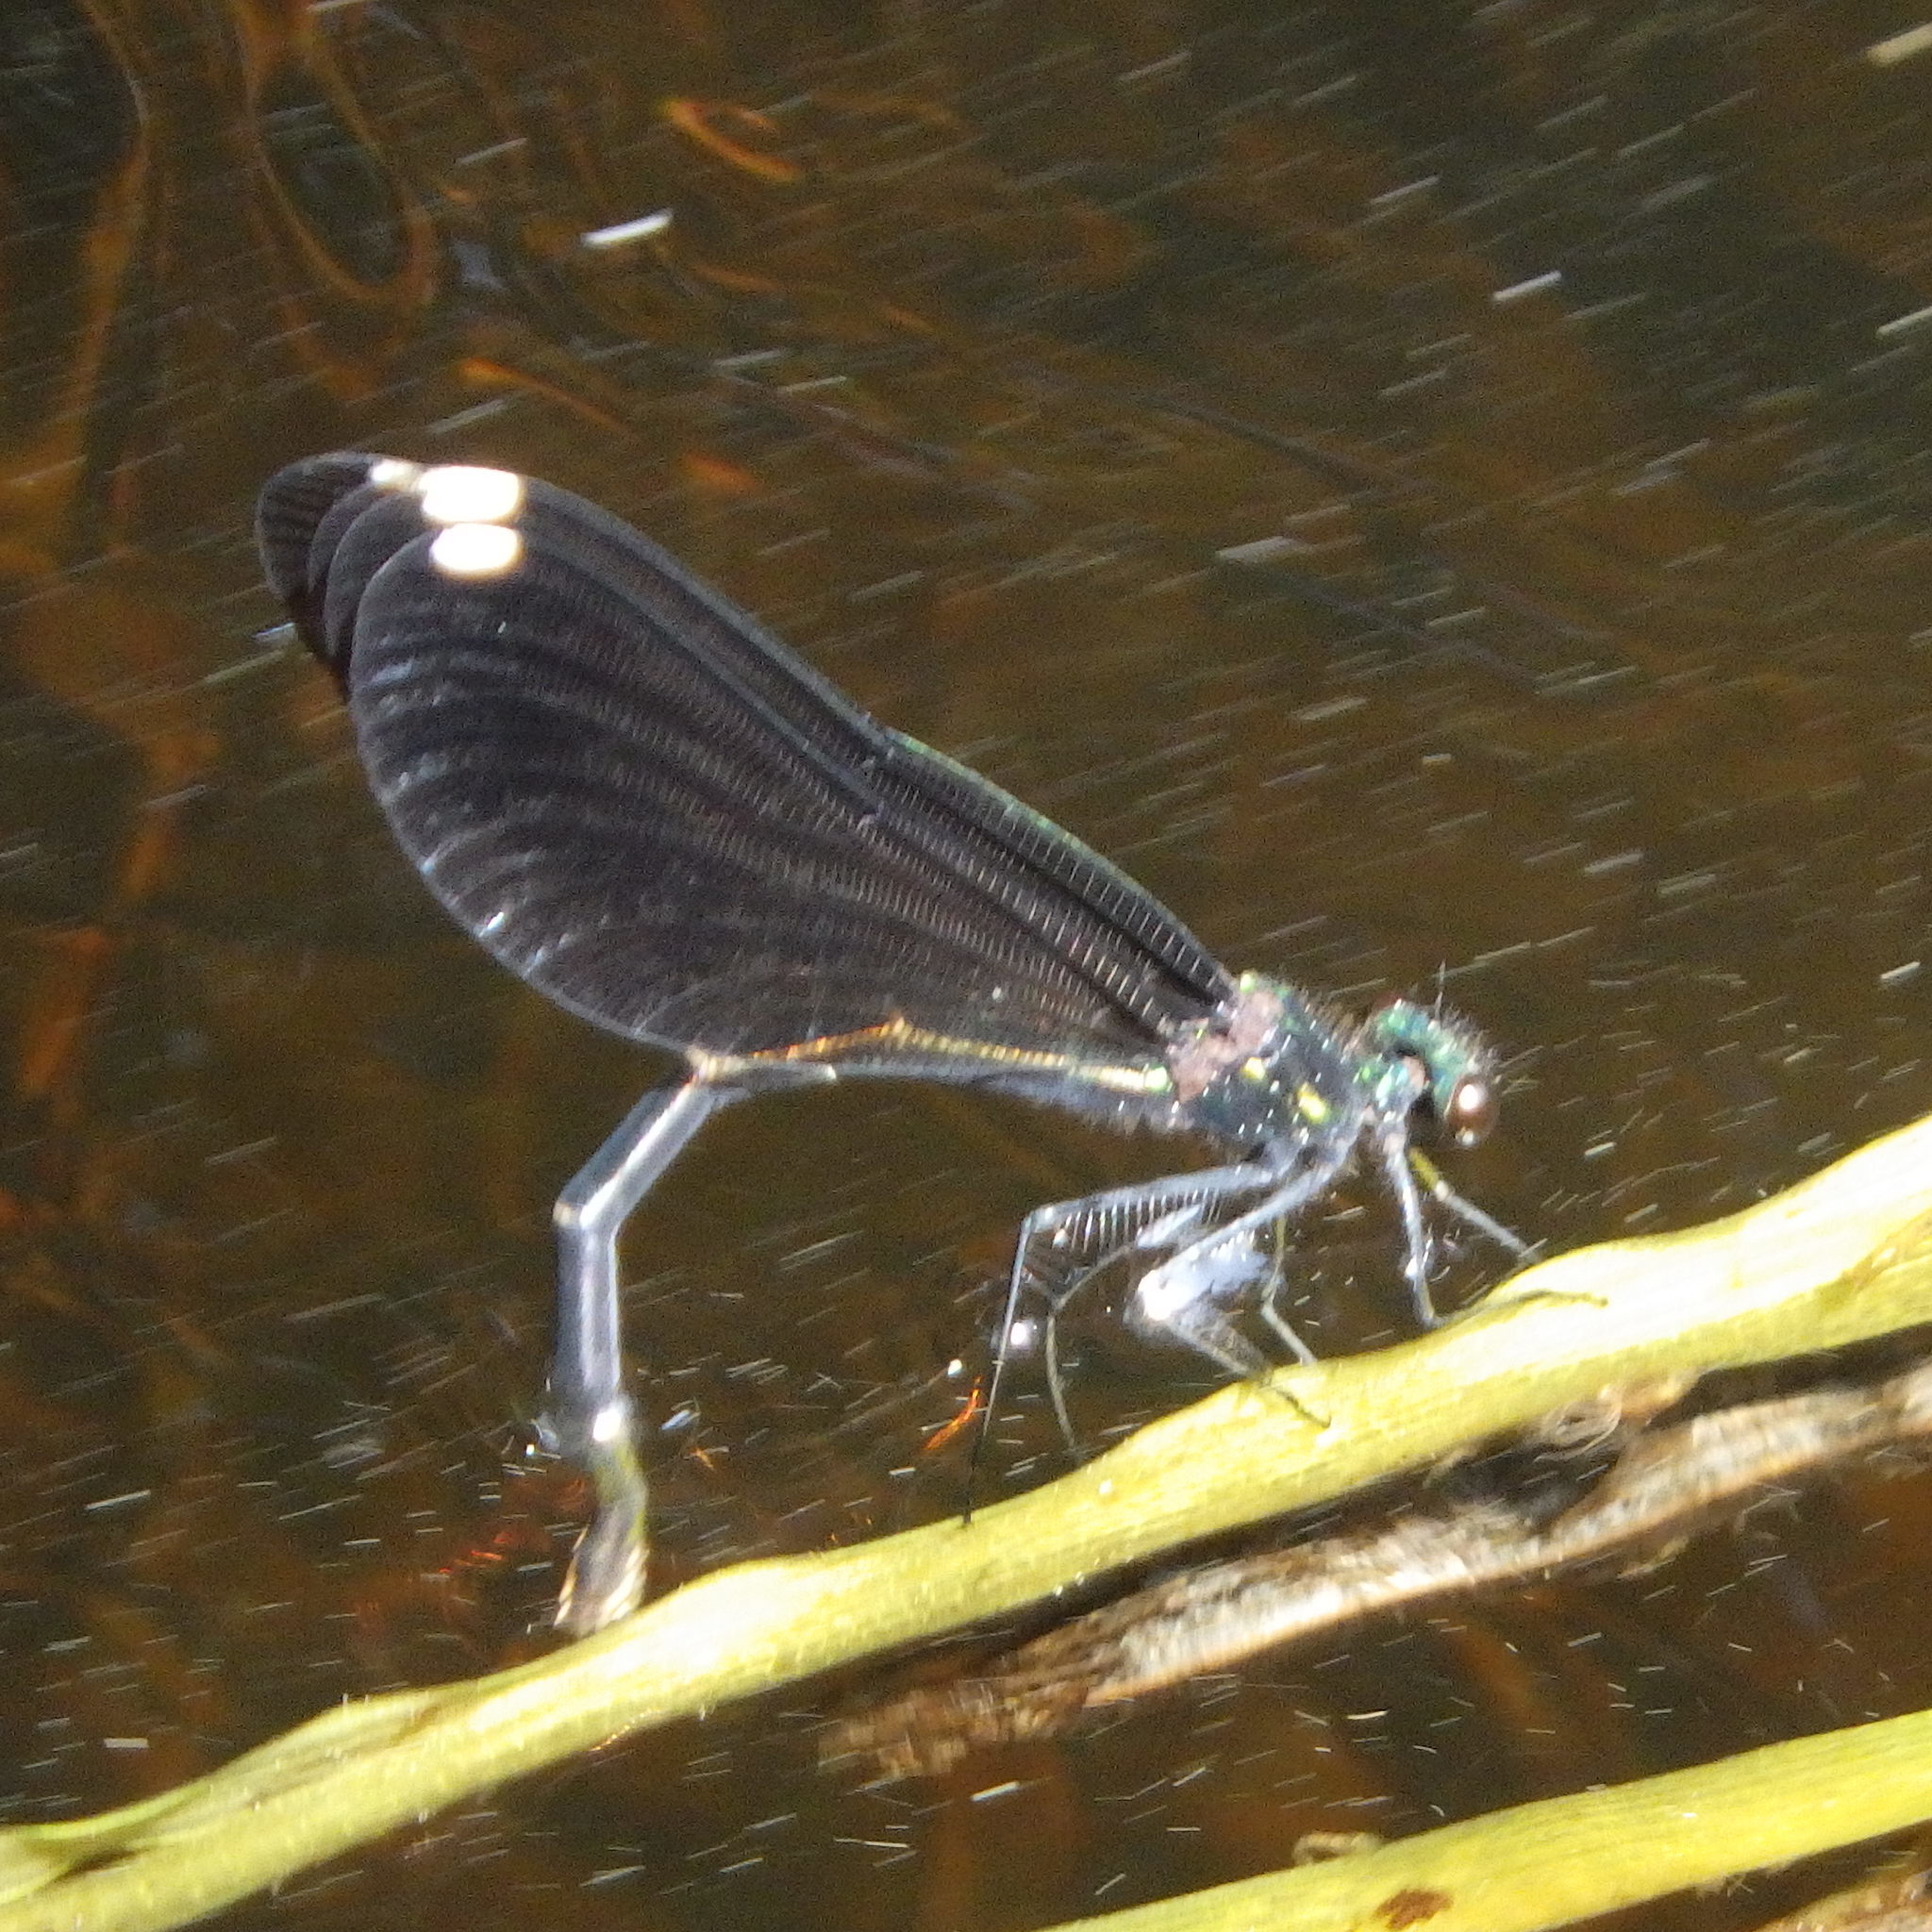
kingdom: Animalia
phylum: Arthropoda
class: Insecta
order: Odonata
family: Calopterygidae
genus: Calopteryx
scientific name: Calopteryx maculata
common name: Ebony jewelwing
